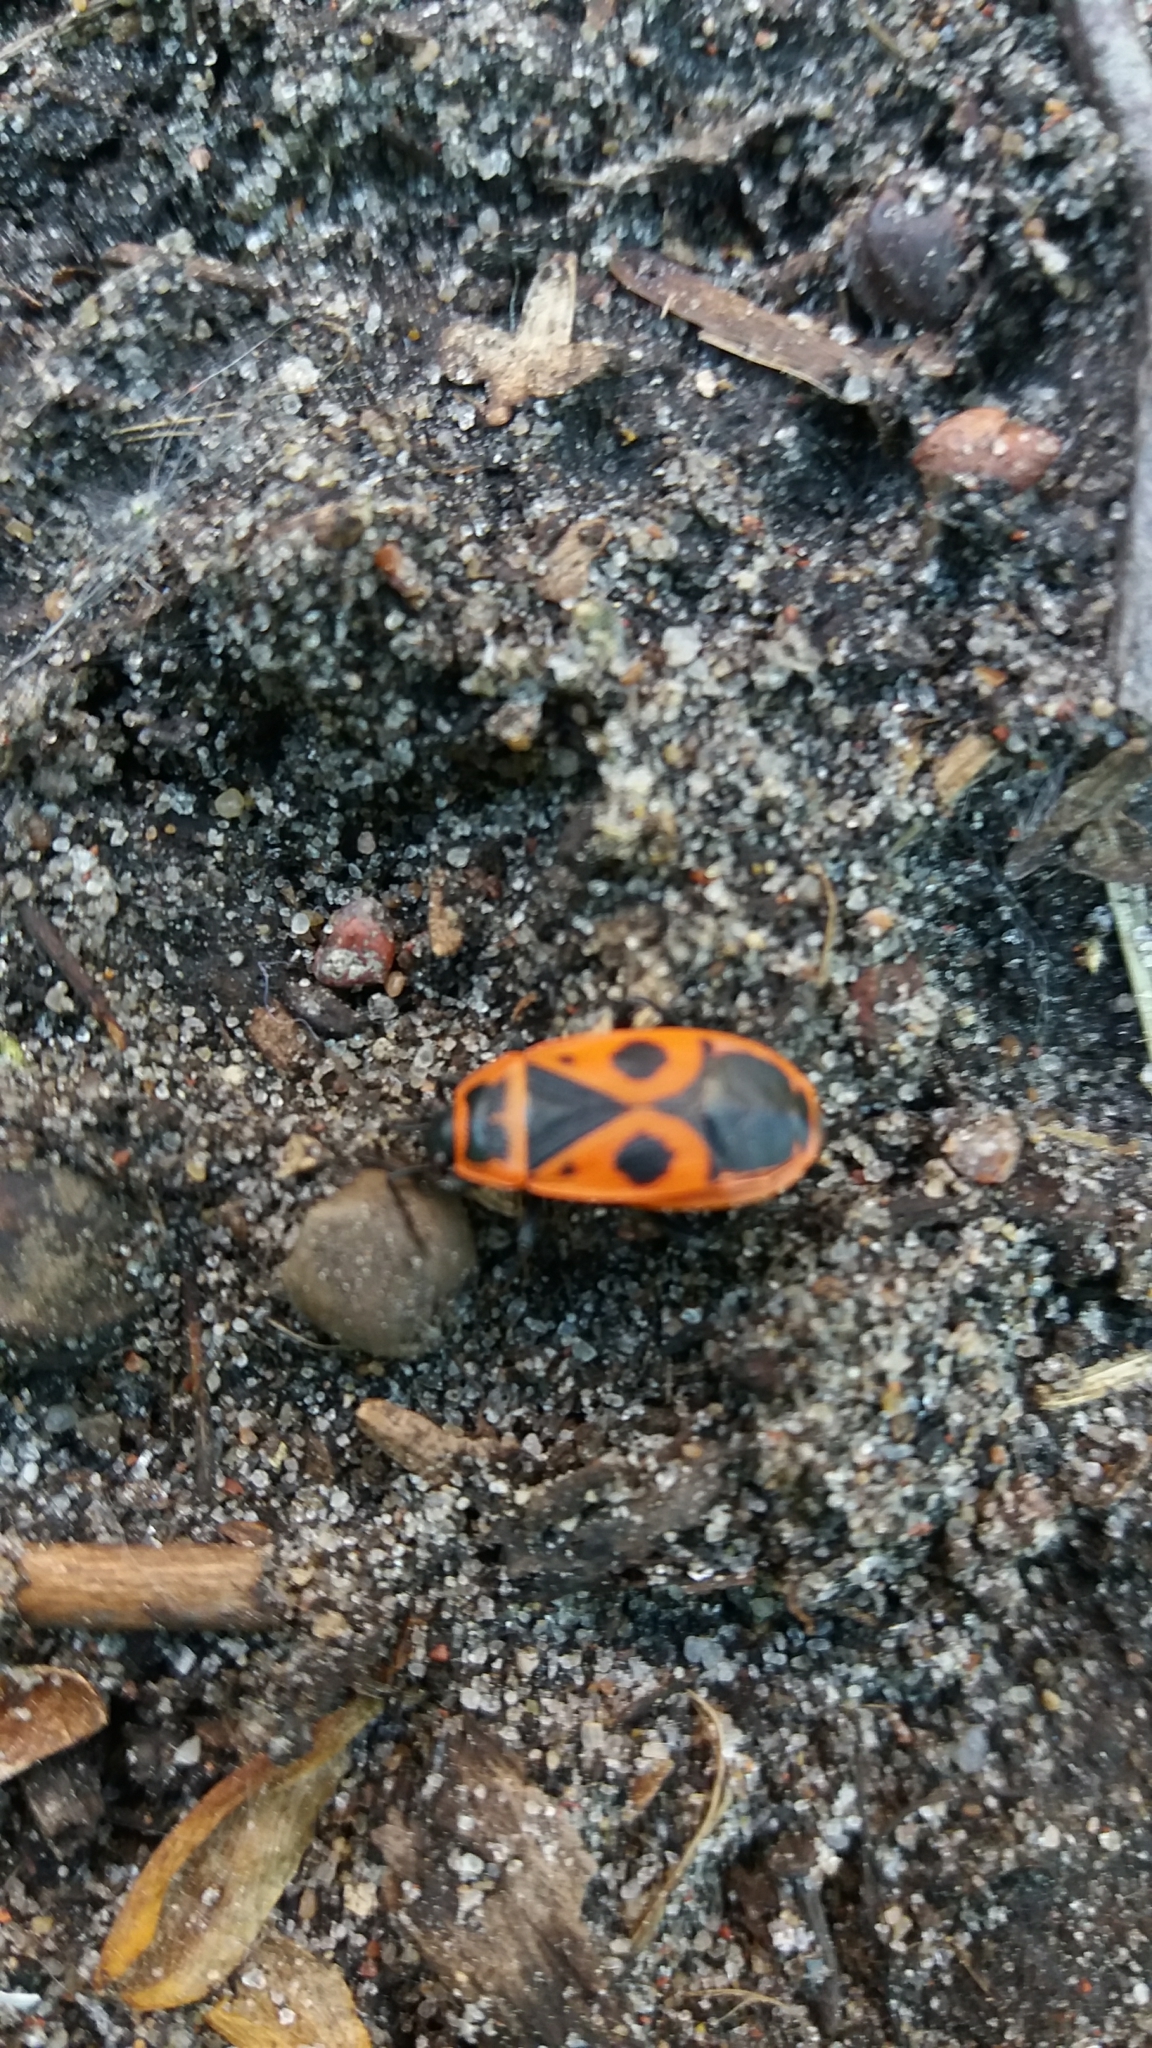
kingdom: Animalia
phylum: Arthropoda
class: Insecta
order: Hemiptera
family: Pyrrhocoridae
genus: Pyrrhocoris
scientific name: Pyrrhocoris apterus
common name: Firebug
